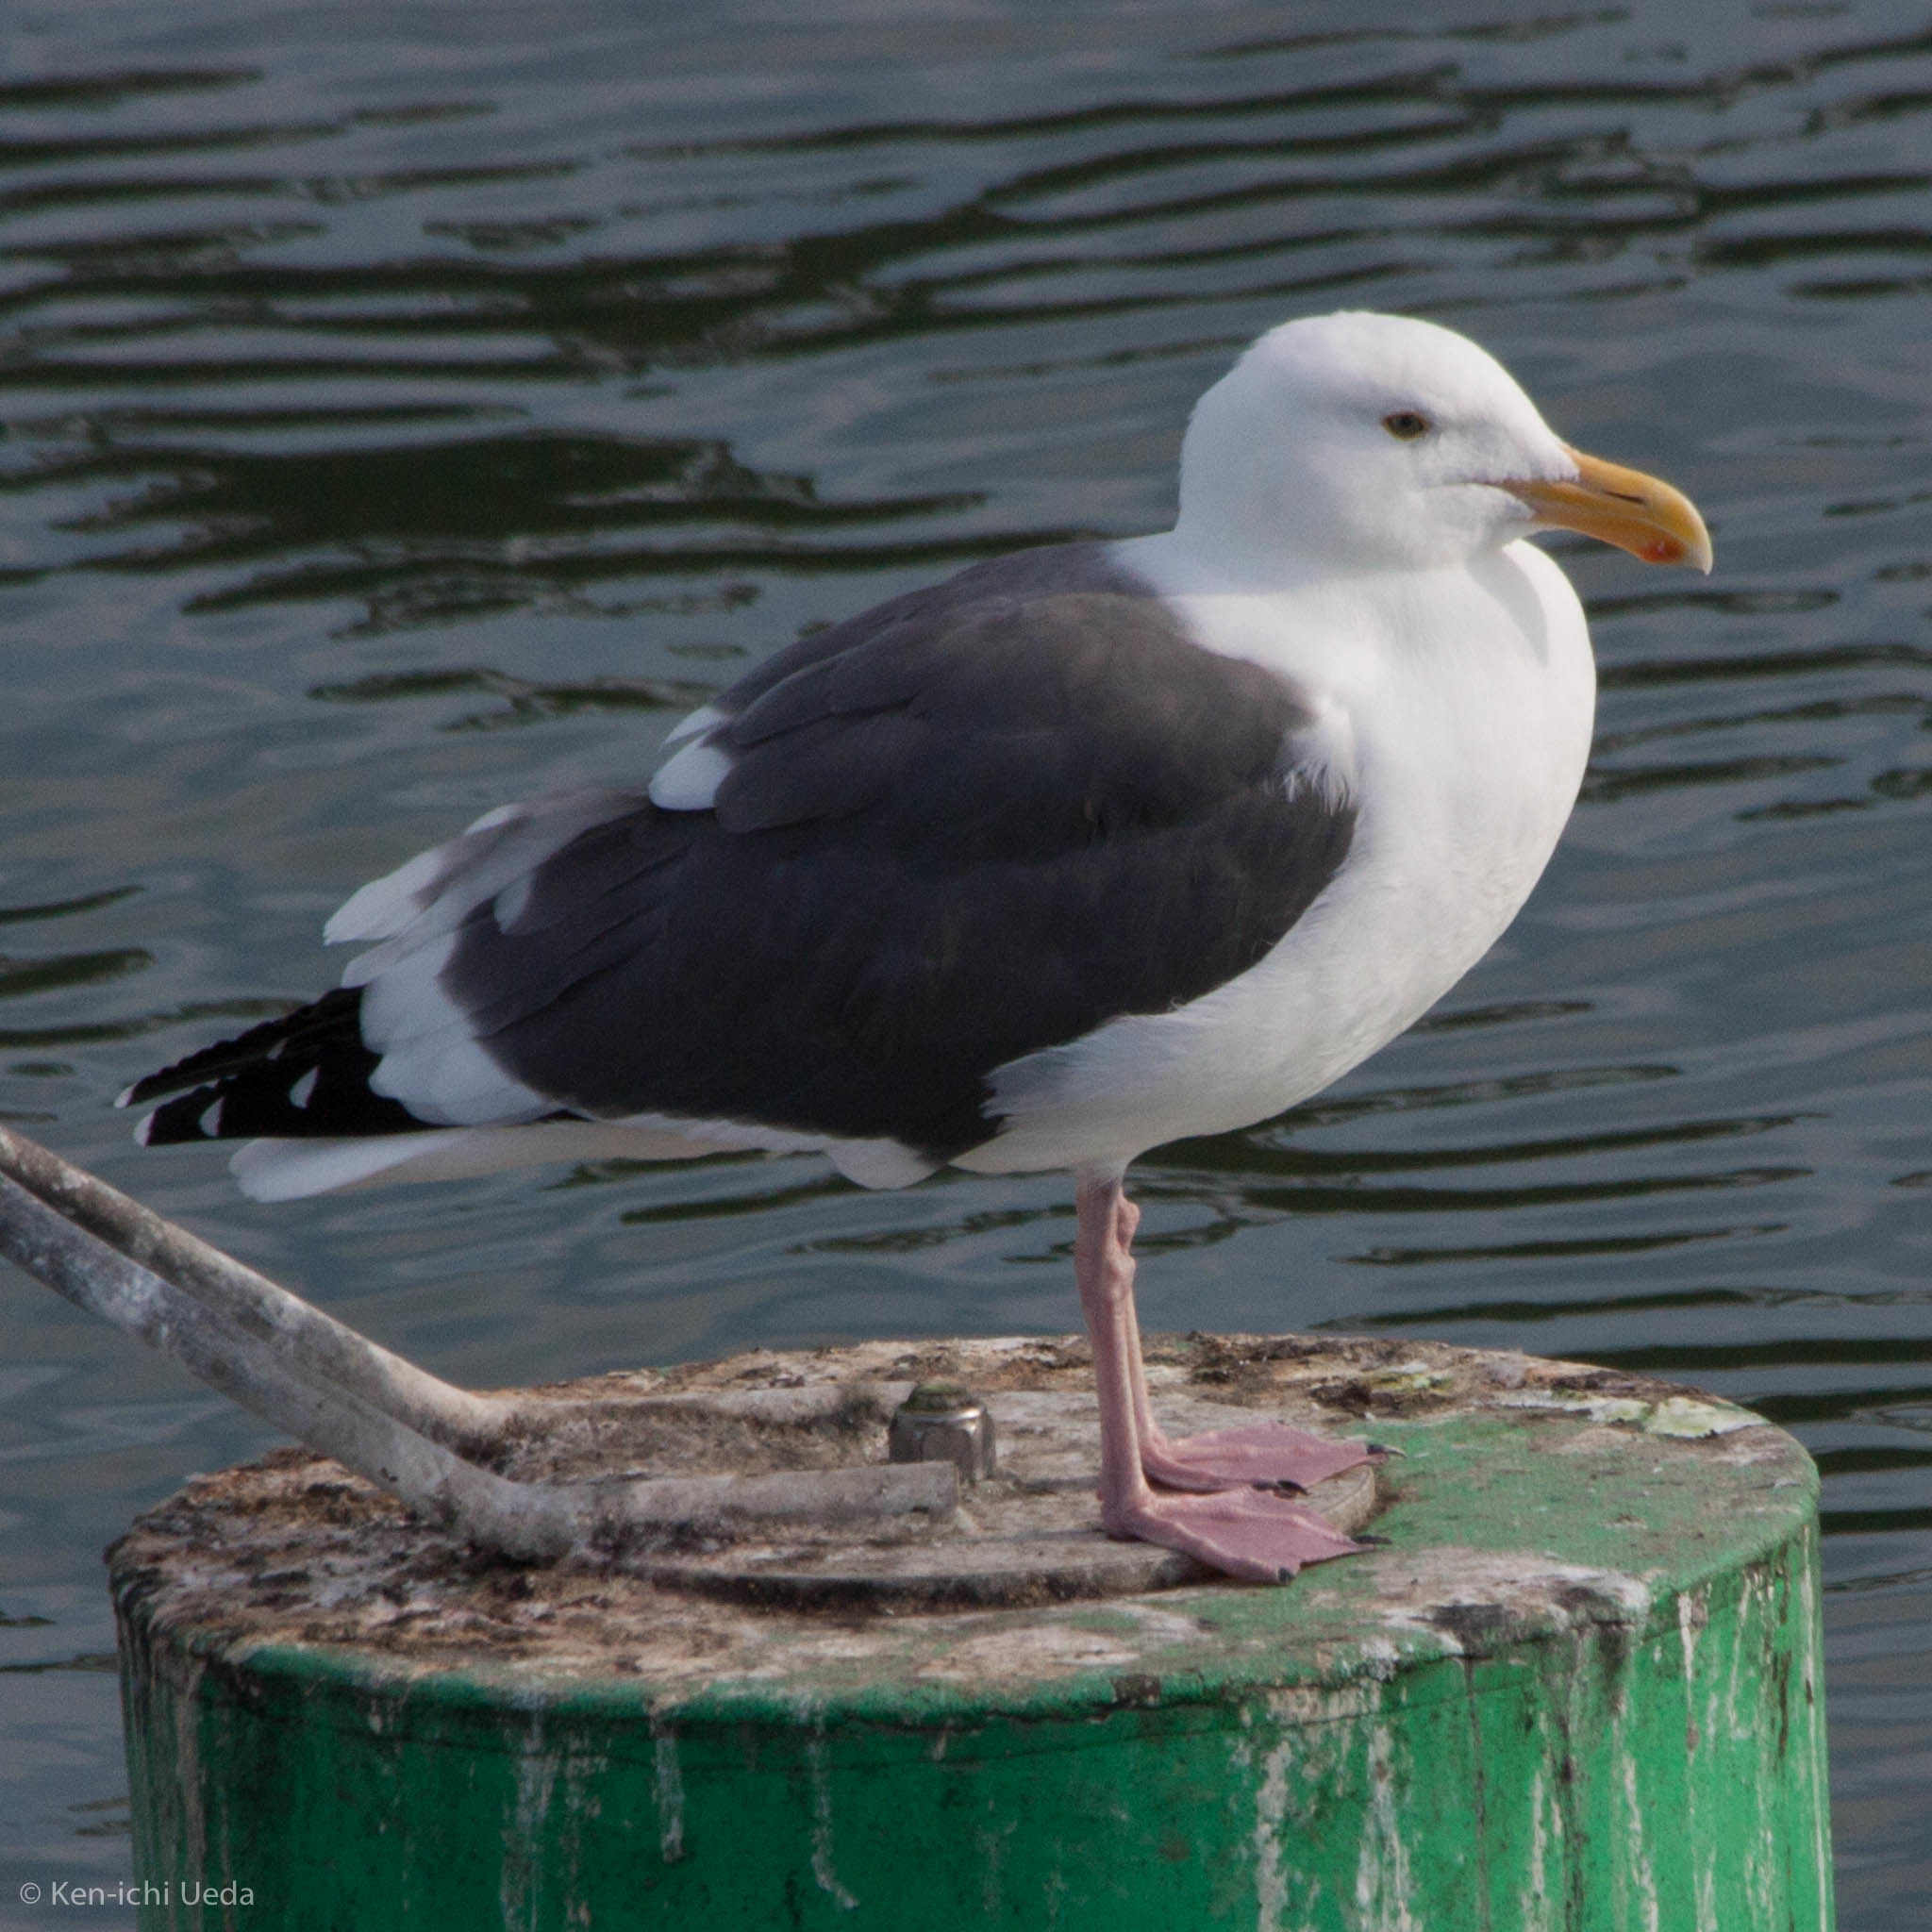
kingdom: Animalia
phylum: Chordata
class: Aves
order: Charadriiformes
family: Laridae
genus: Larus
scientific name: Larus occidentalis
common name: Western gull
